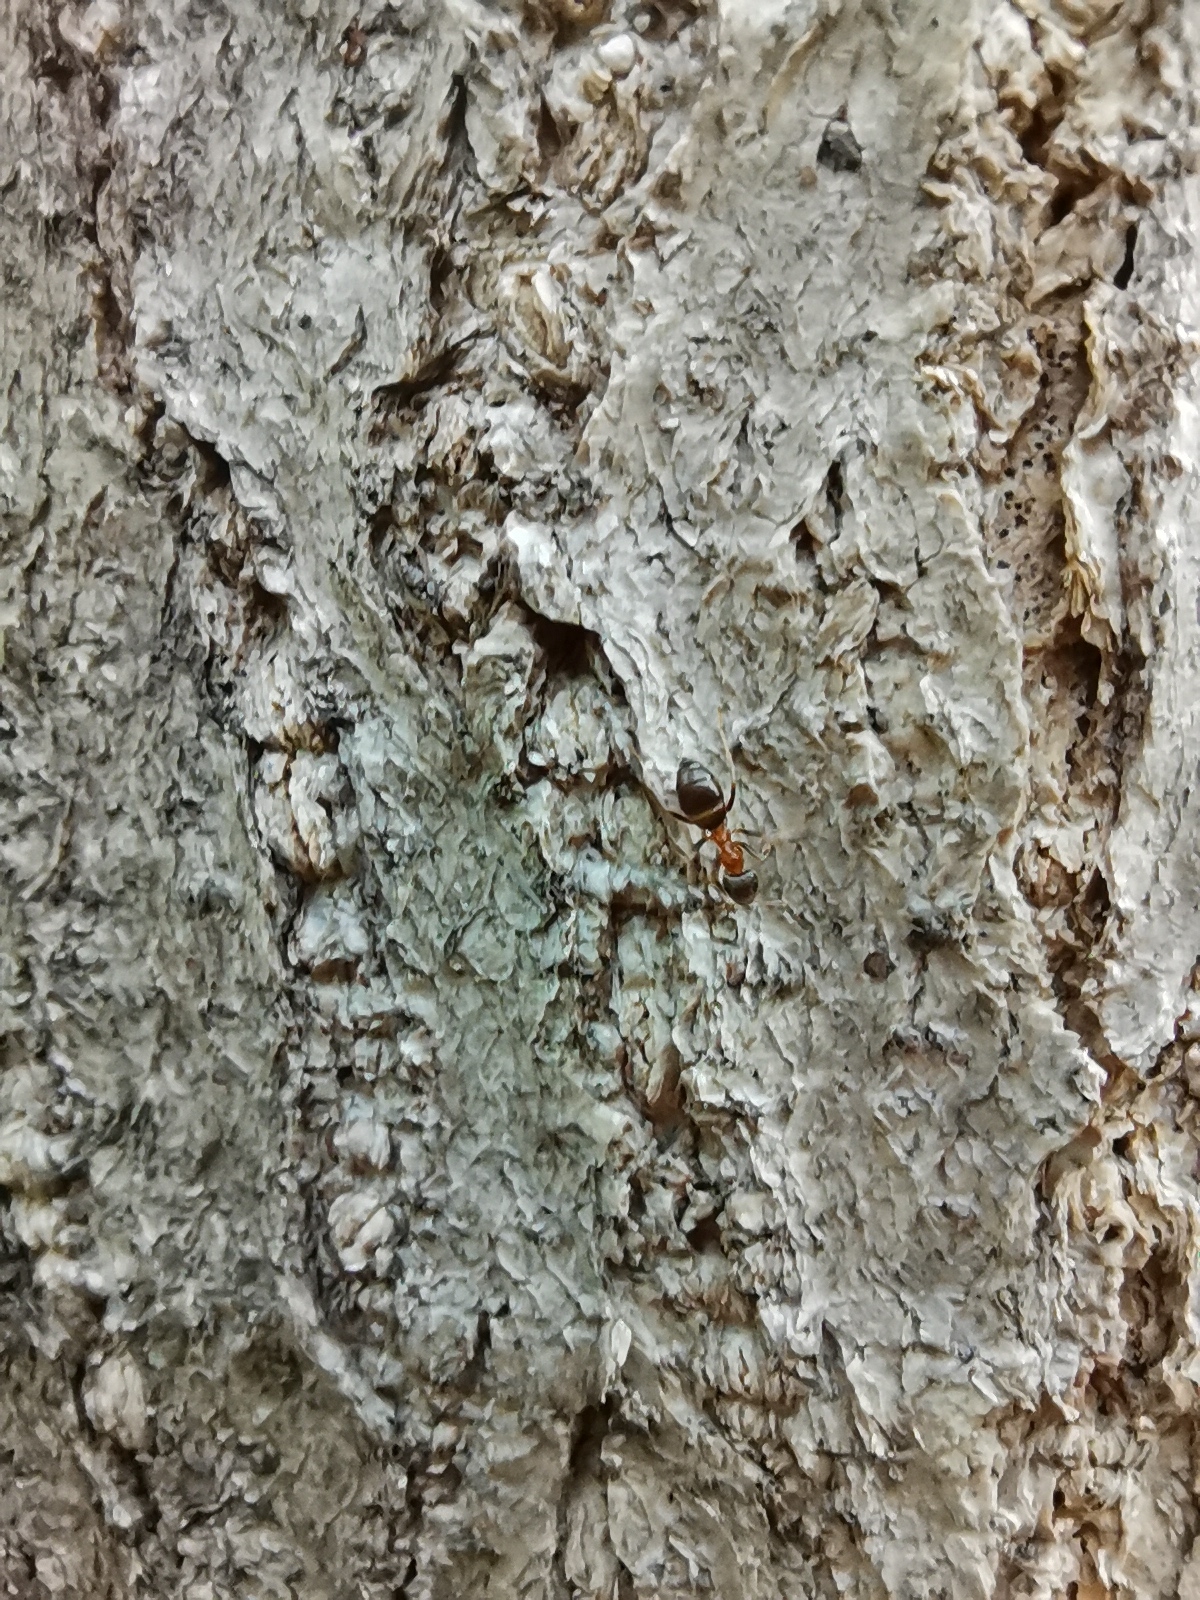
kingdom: Animalia
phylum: Arthropoda
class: Insecta
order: Hymenoptera
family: Formicidae
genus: Lasius
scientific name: Lasius emarginatus
